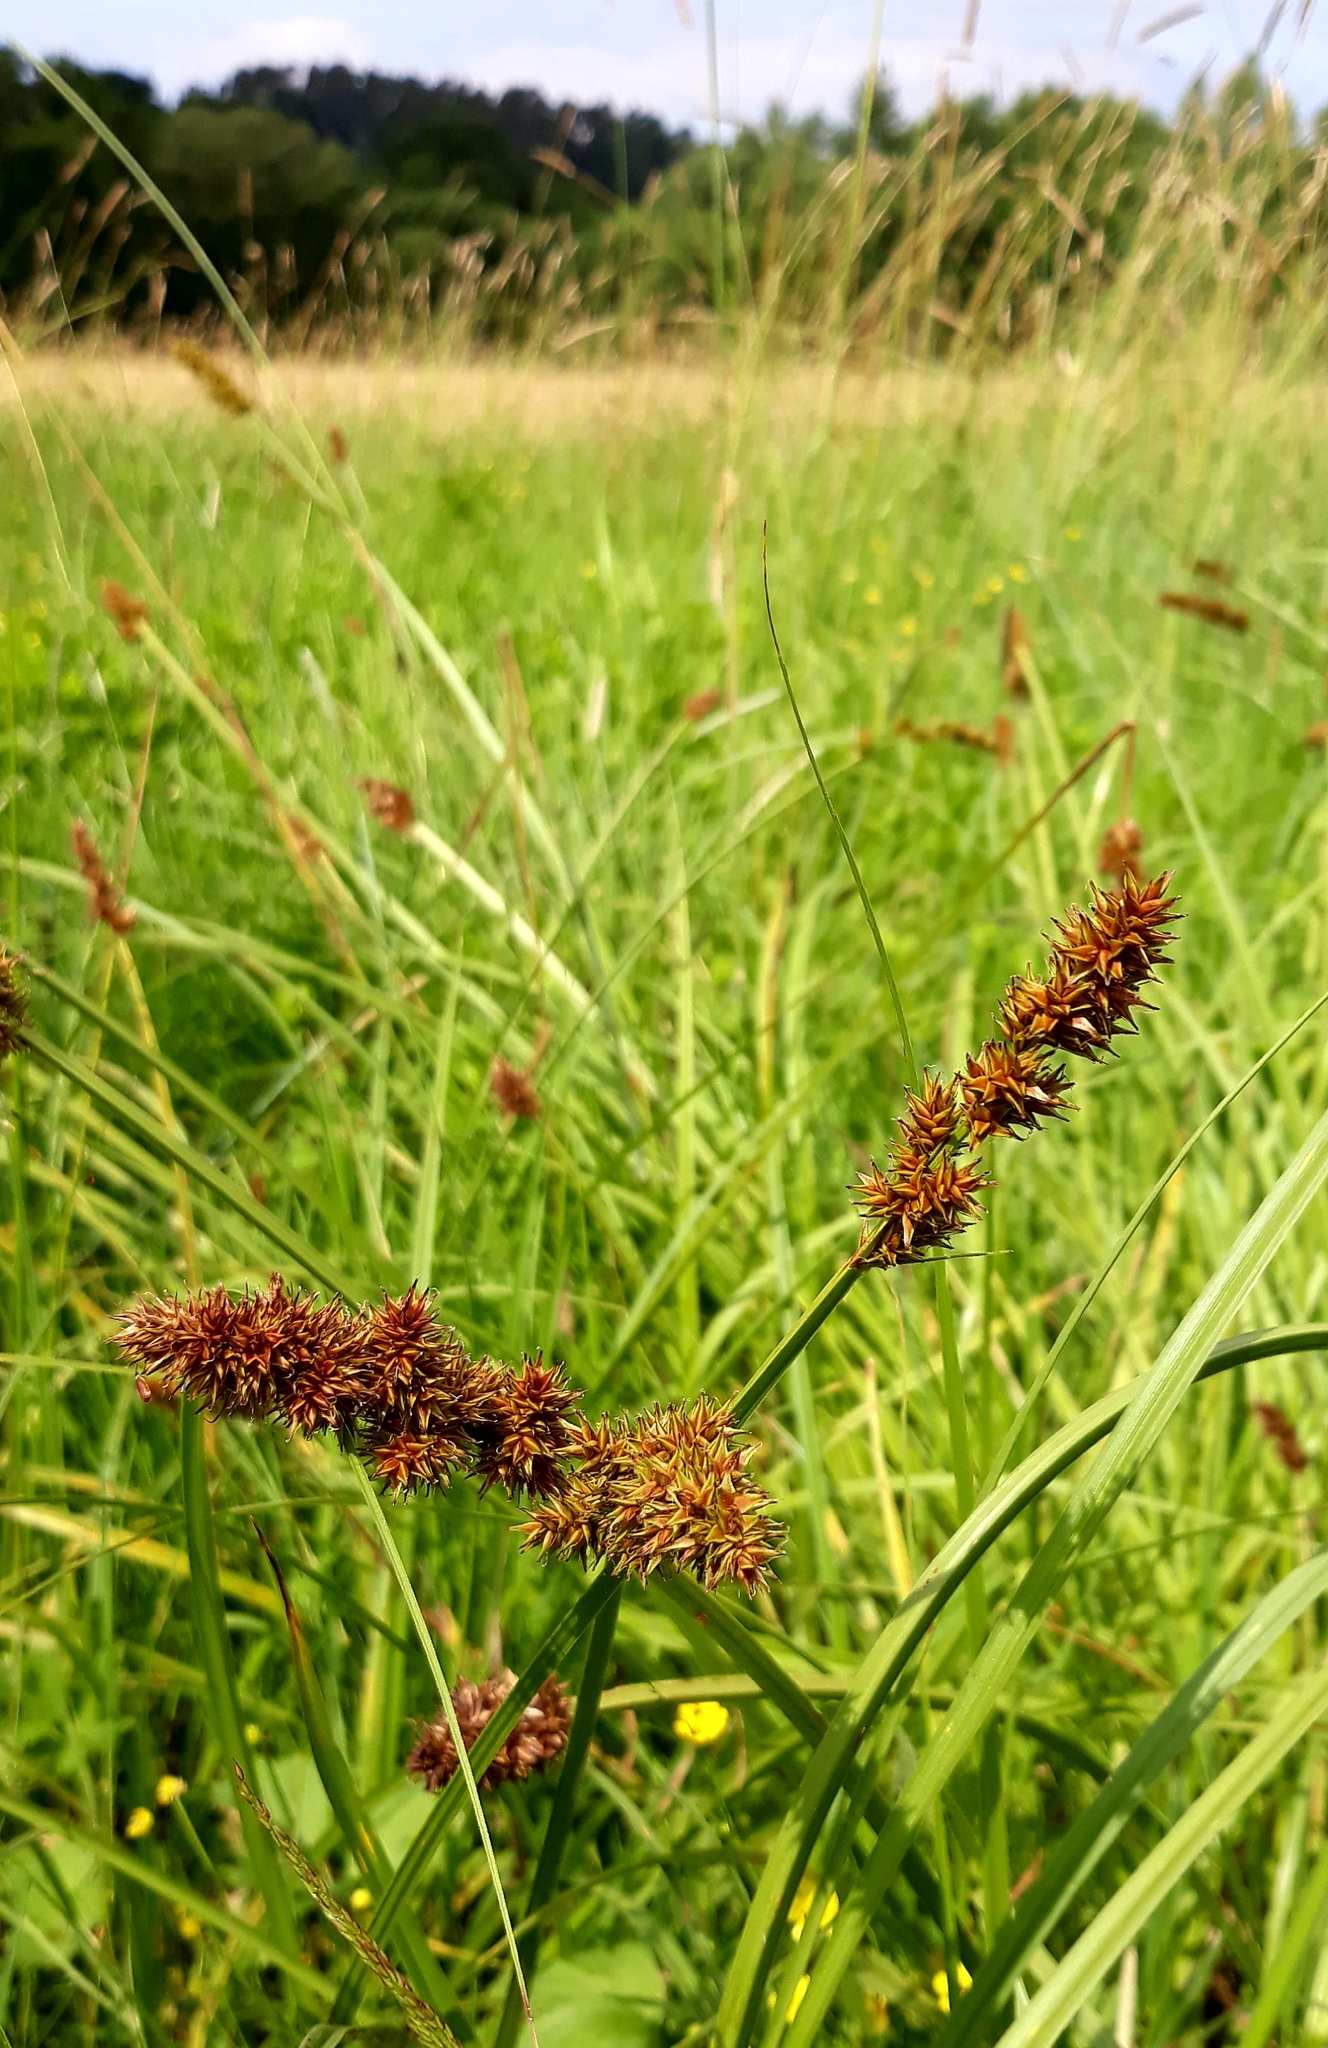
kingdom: Plantae
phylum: Tracheophyta
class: Liliopsida
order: Poales
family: Cyperaceae
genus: Carex
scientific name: Carex paniculata
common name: Greater tussock-sedge
